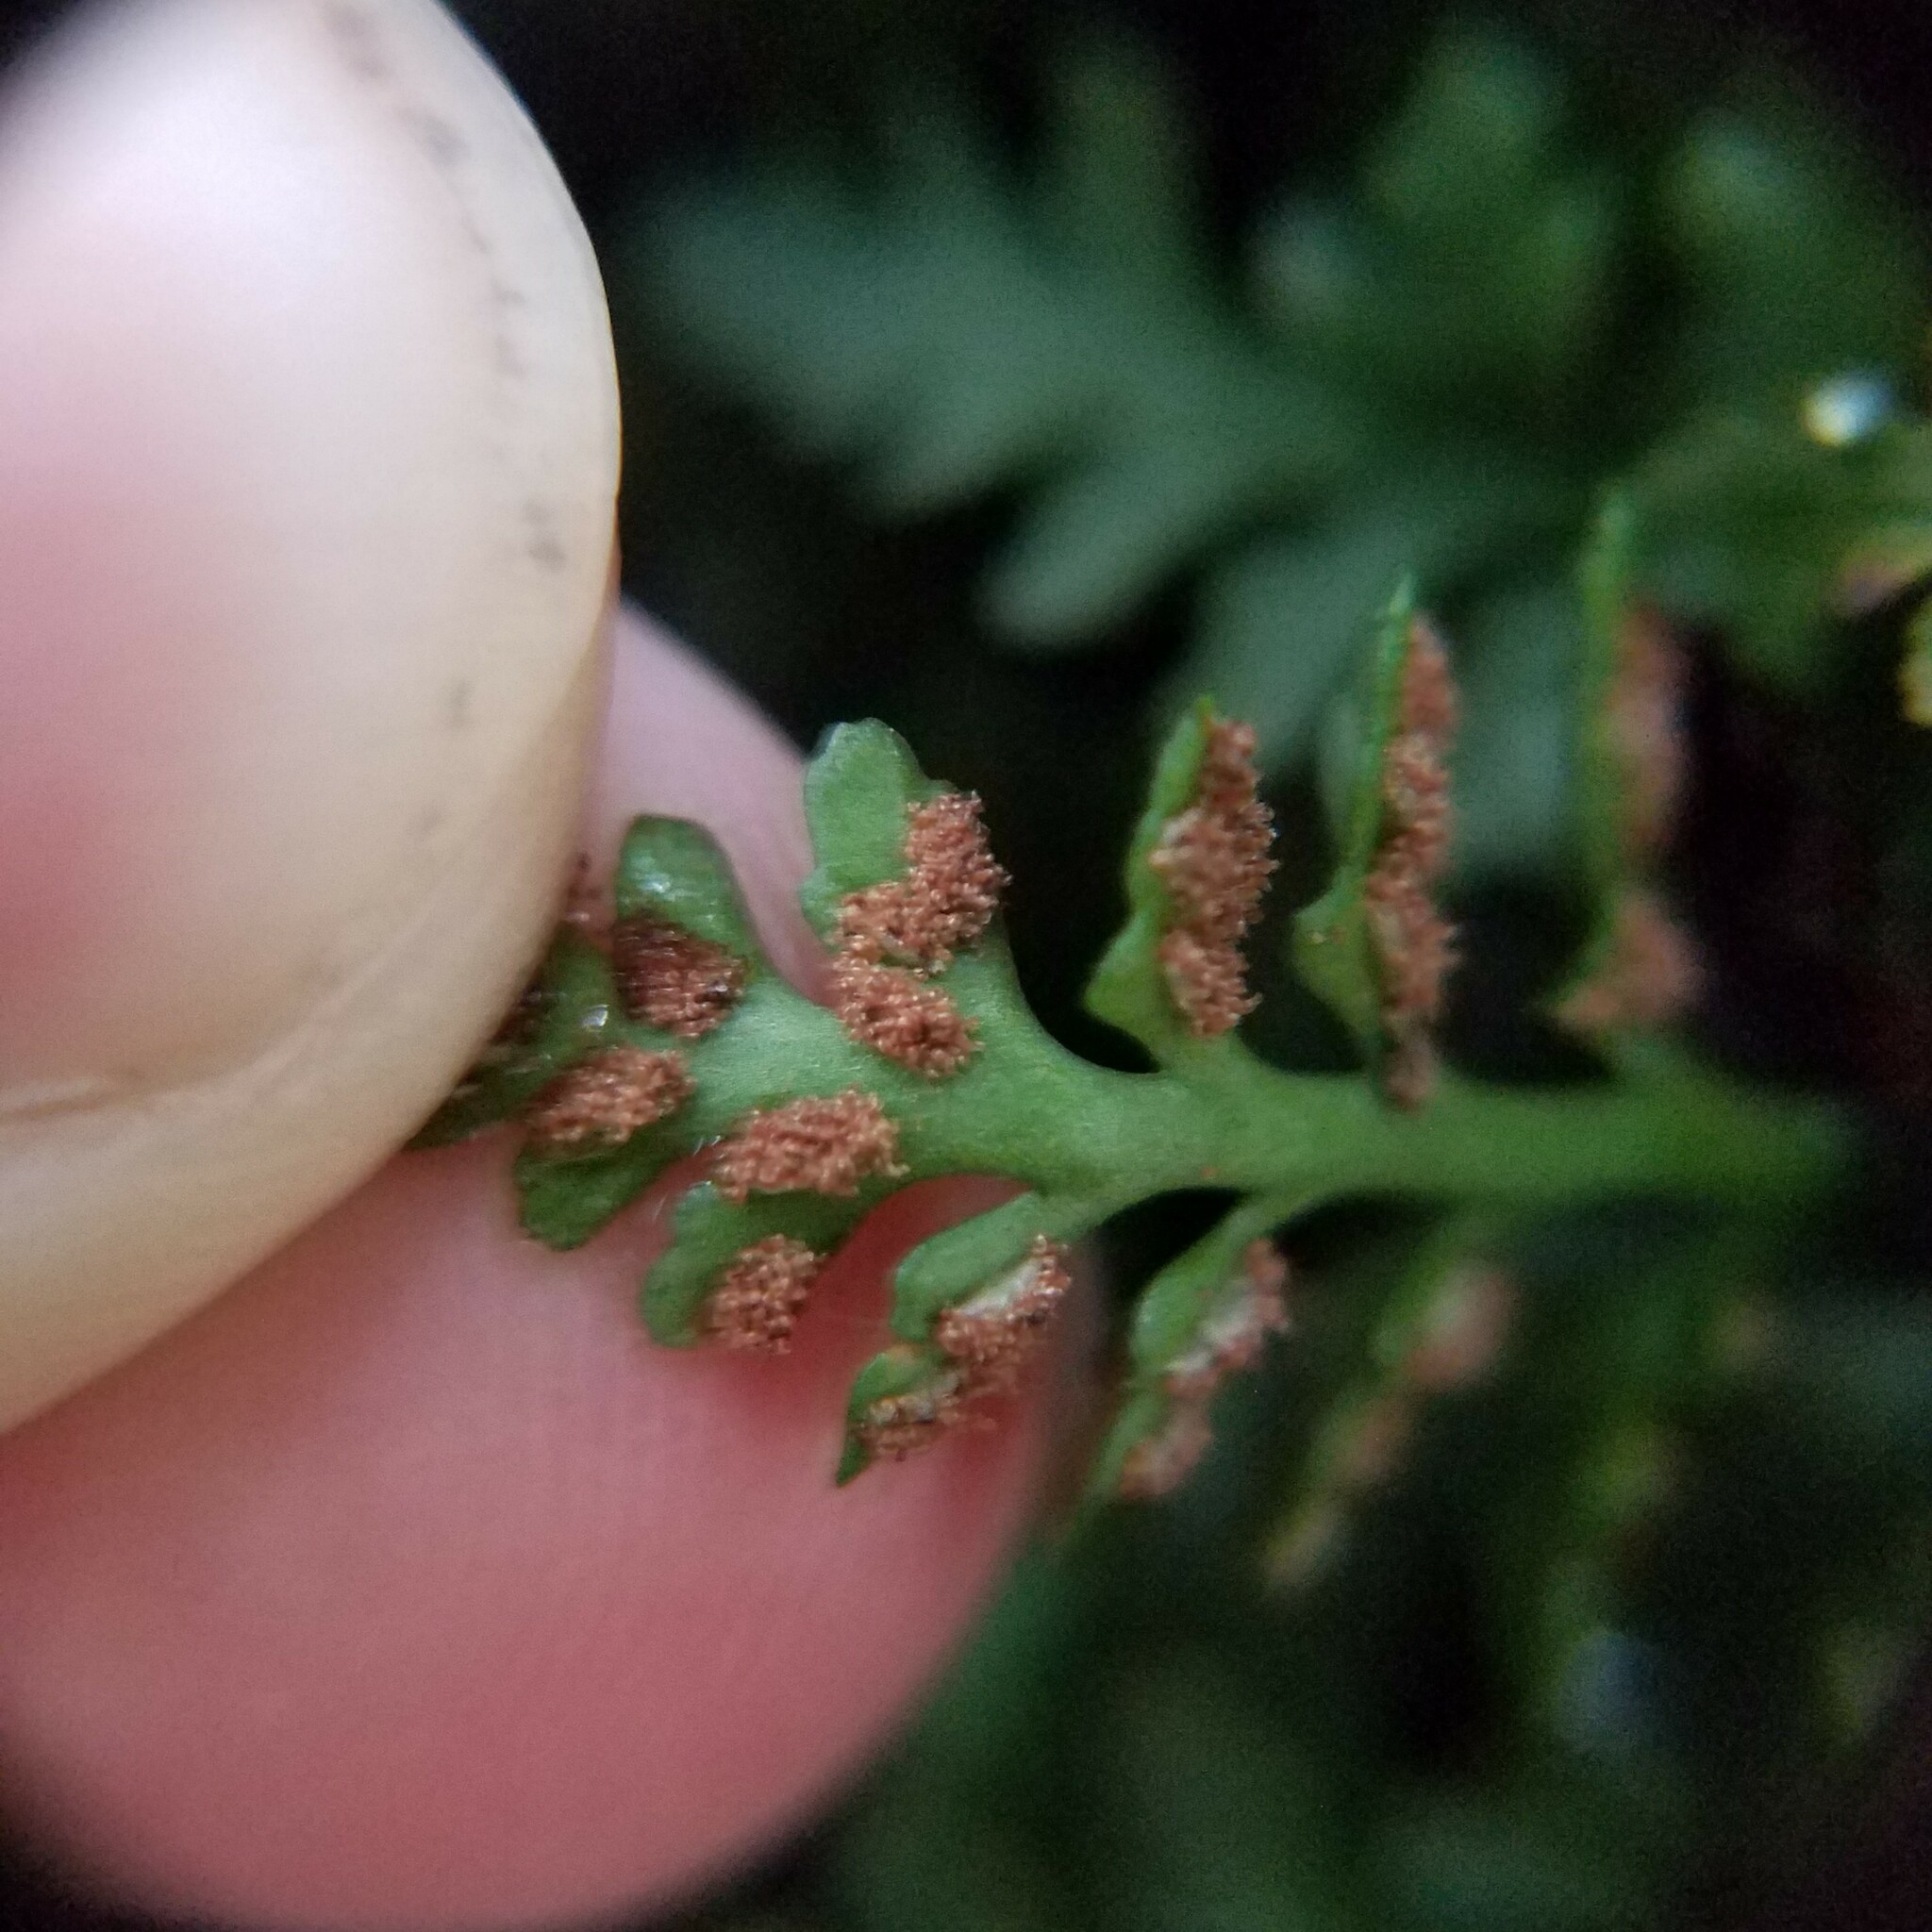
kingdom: Plantae
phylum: Tracheophyta
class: Polypodiopsida
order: Polypodiales
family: Aspleniaceae
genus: Asplenium
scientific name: Asplenium montanum
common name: Mountain spleenwort
